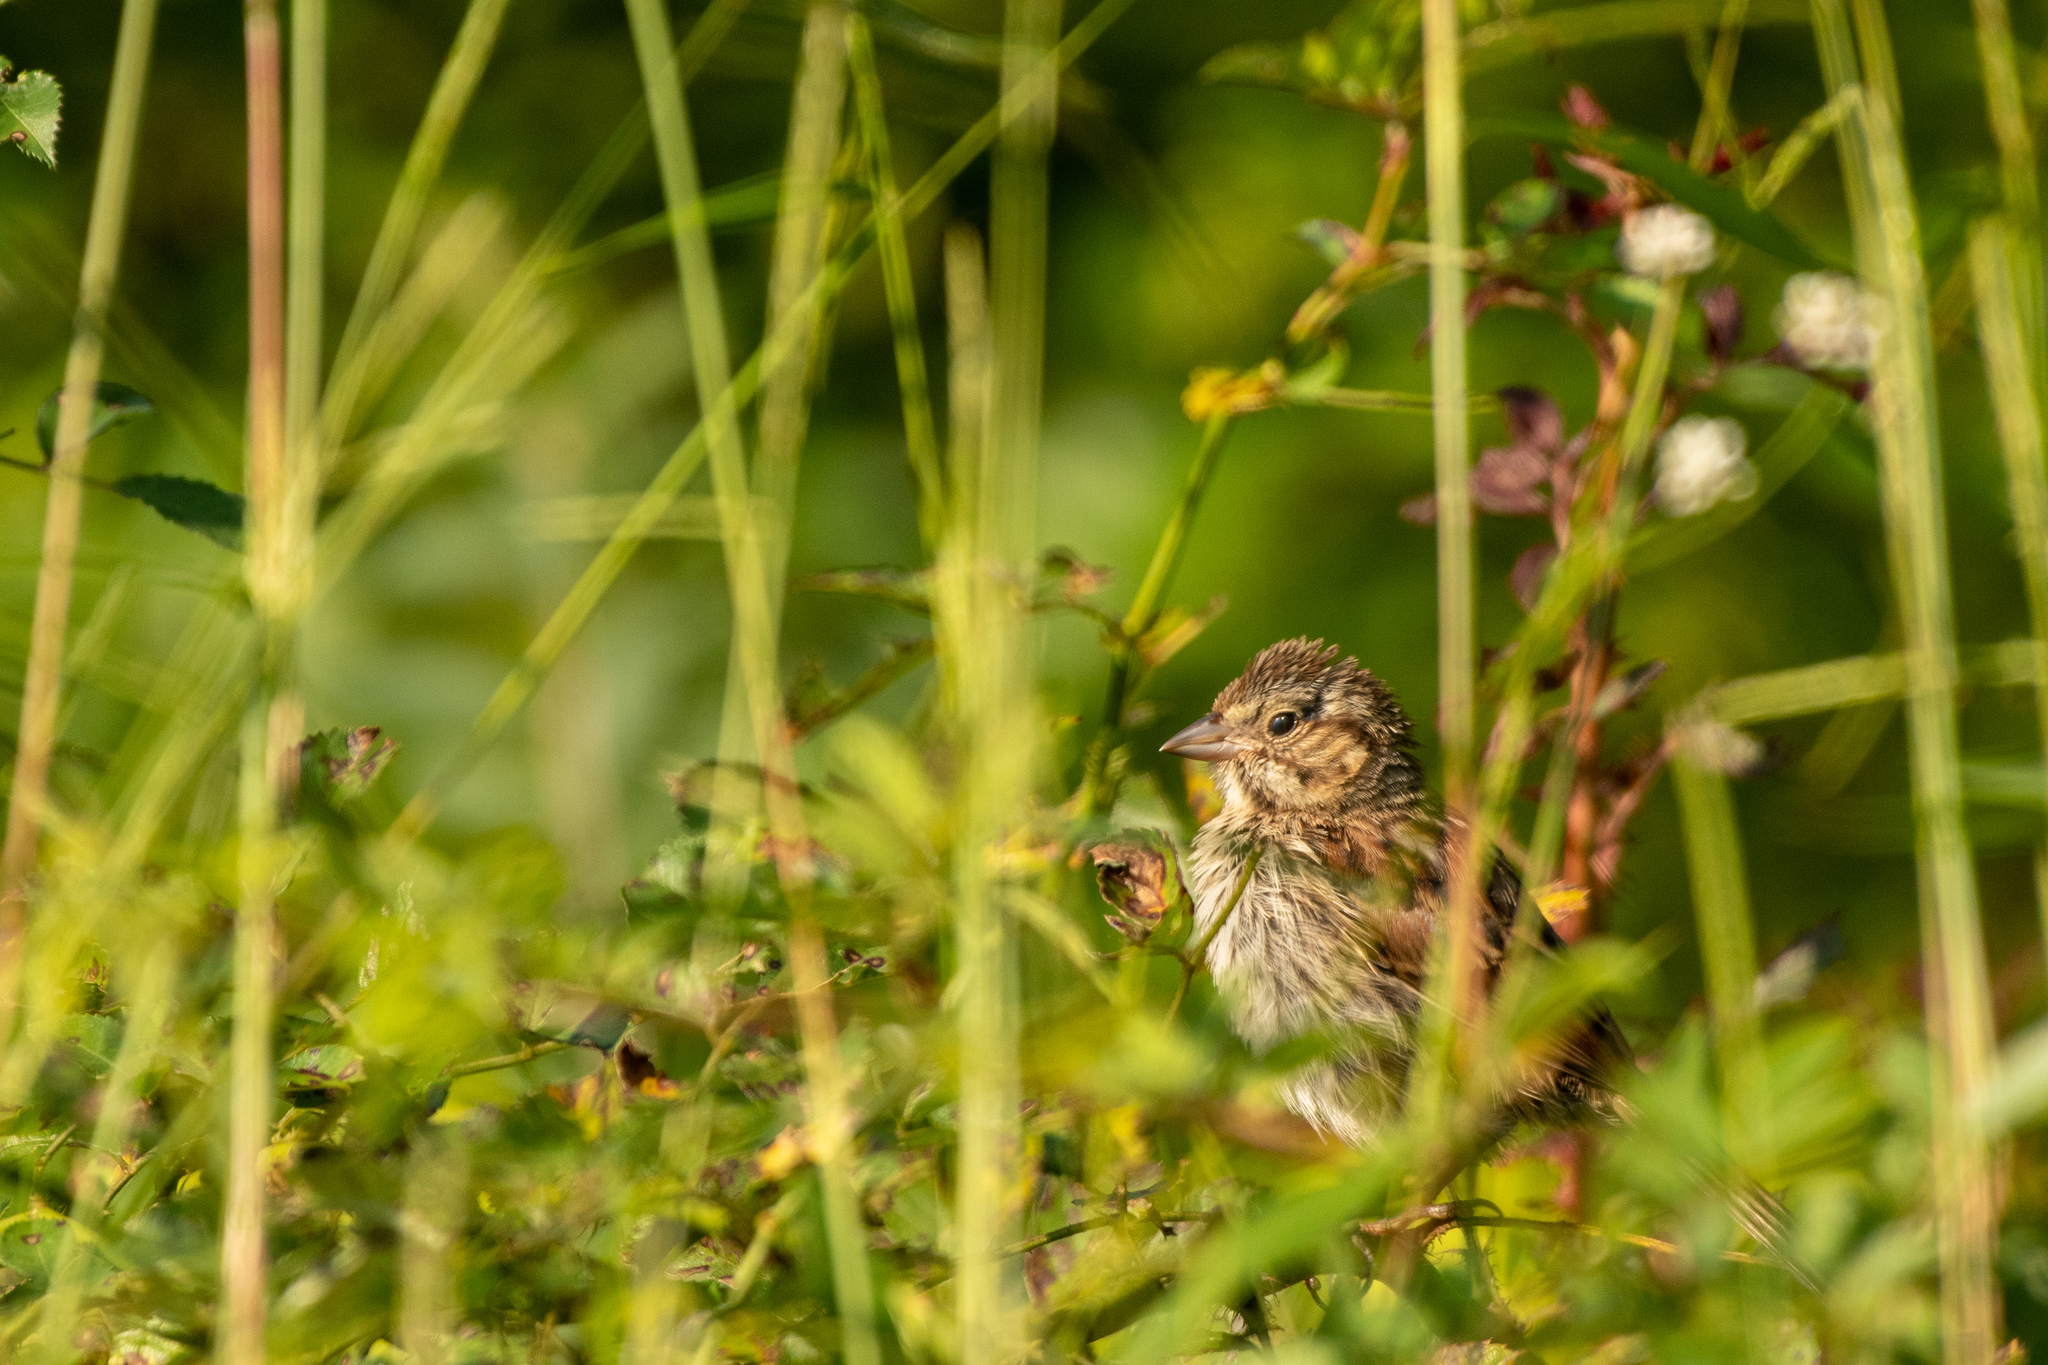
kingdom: Animalia
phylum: Chordata
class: Aves
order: Passeriformes
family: Passerellidae
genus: Melospiza
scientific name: Melospiza melodia
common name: Song sparrow
